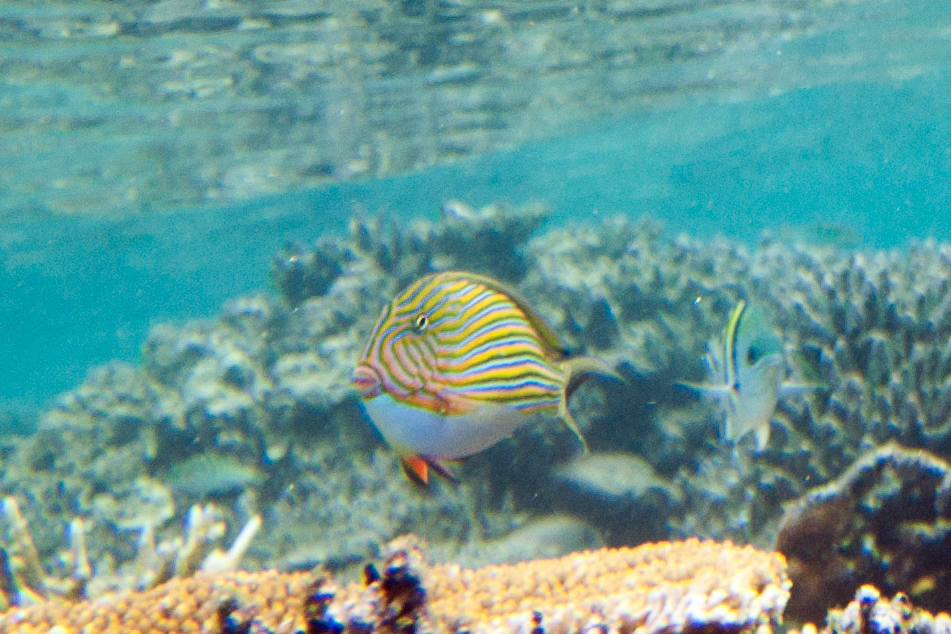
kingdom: Animalia
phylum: Chordata
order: Perciformes
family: Acanthuridae
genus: Acanthurus
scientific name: Acanthurus lineatus
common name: Striped surgeonfish
